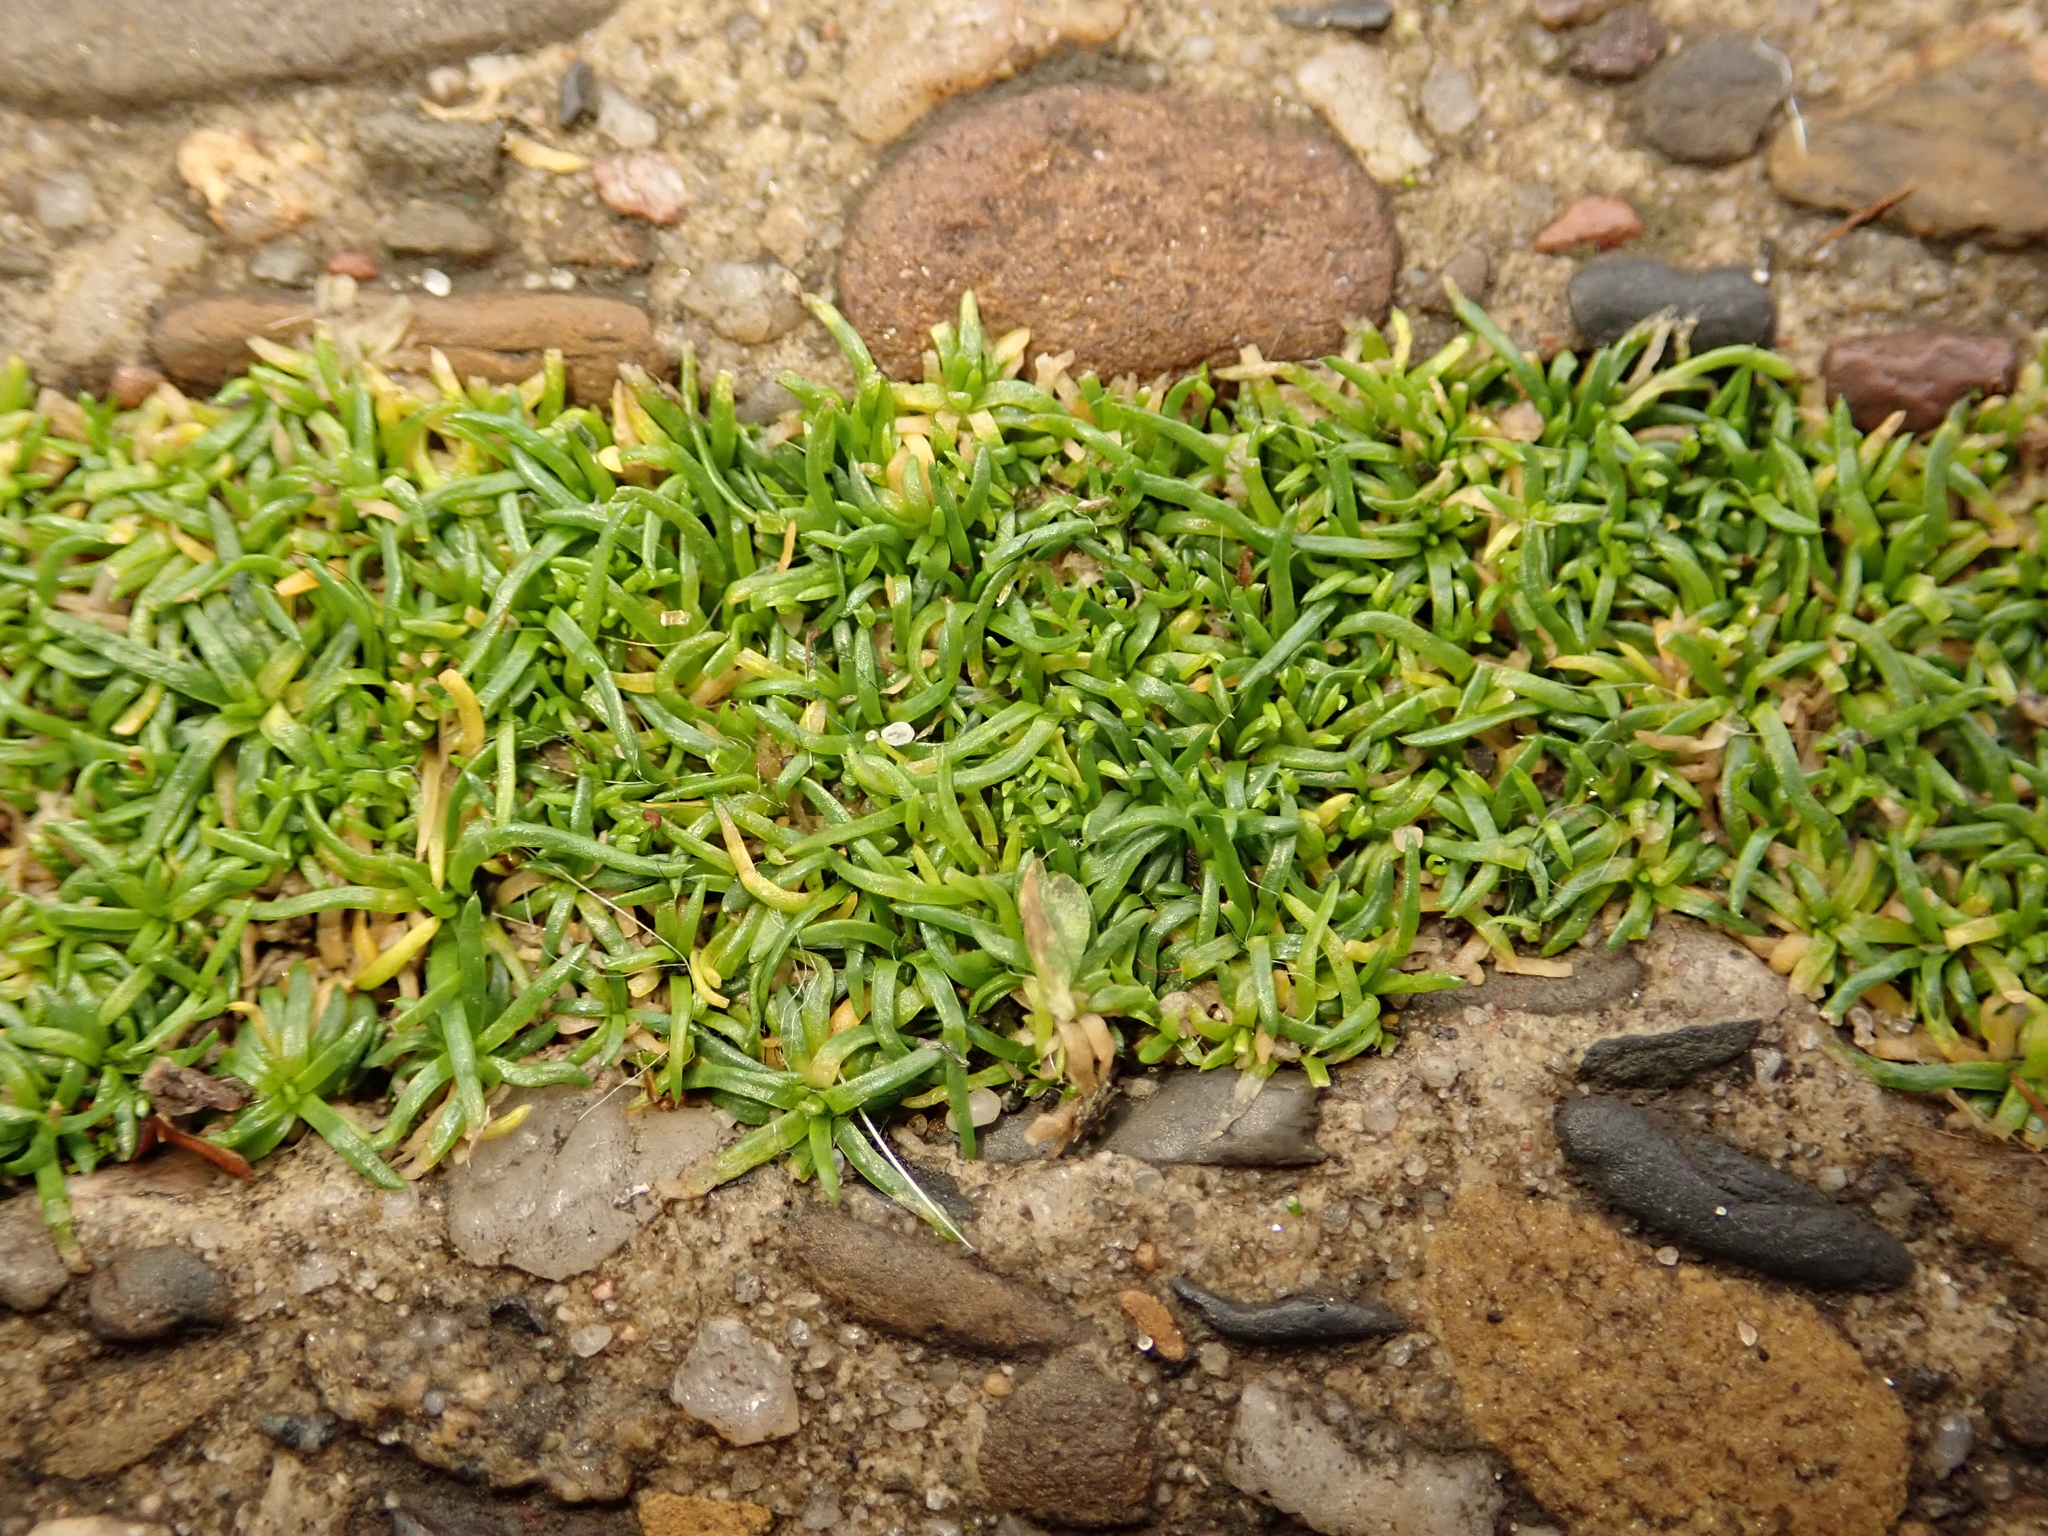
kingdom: Plantae
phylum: Tracheophyta
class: Magnoliopsida
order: Caryophyllales
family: Caryophyllaceae
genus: Sagina
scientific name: Sagina procumbens
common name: Procumbent pearlwort
